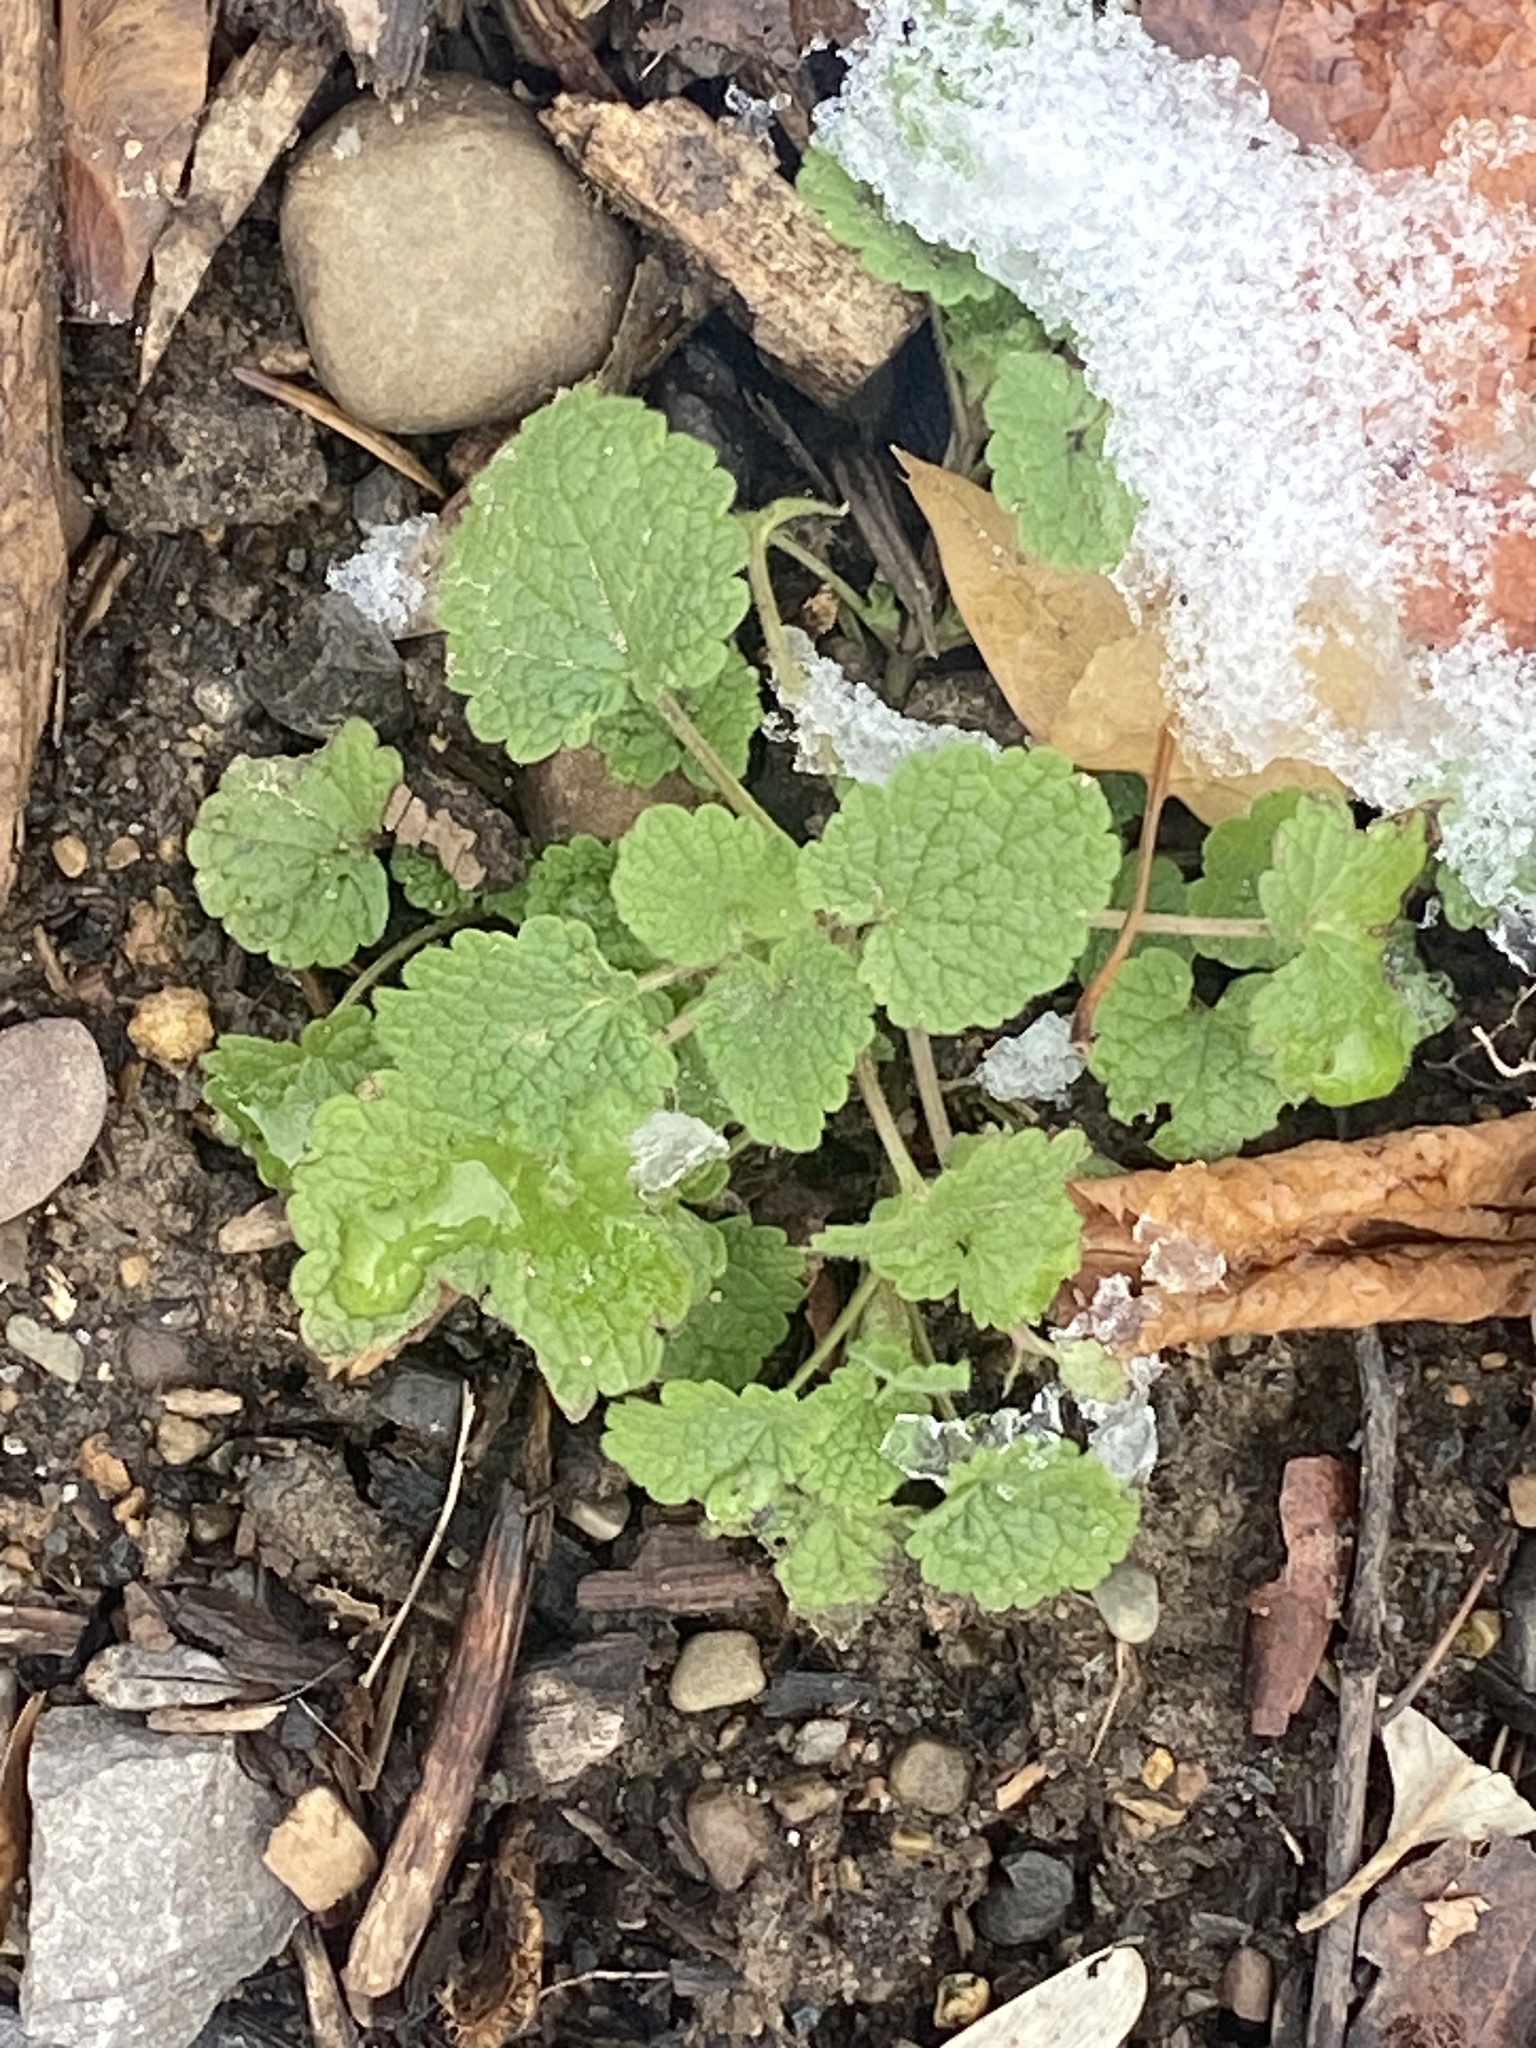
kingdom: Plantae
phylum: Tracheophyta
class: Magnoliopsida
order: Lamiales
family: Lamiaceae
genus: Lamium
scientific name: Lamium purpureum
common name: Red dead-nettle
